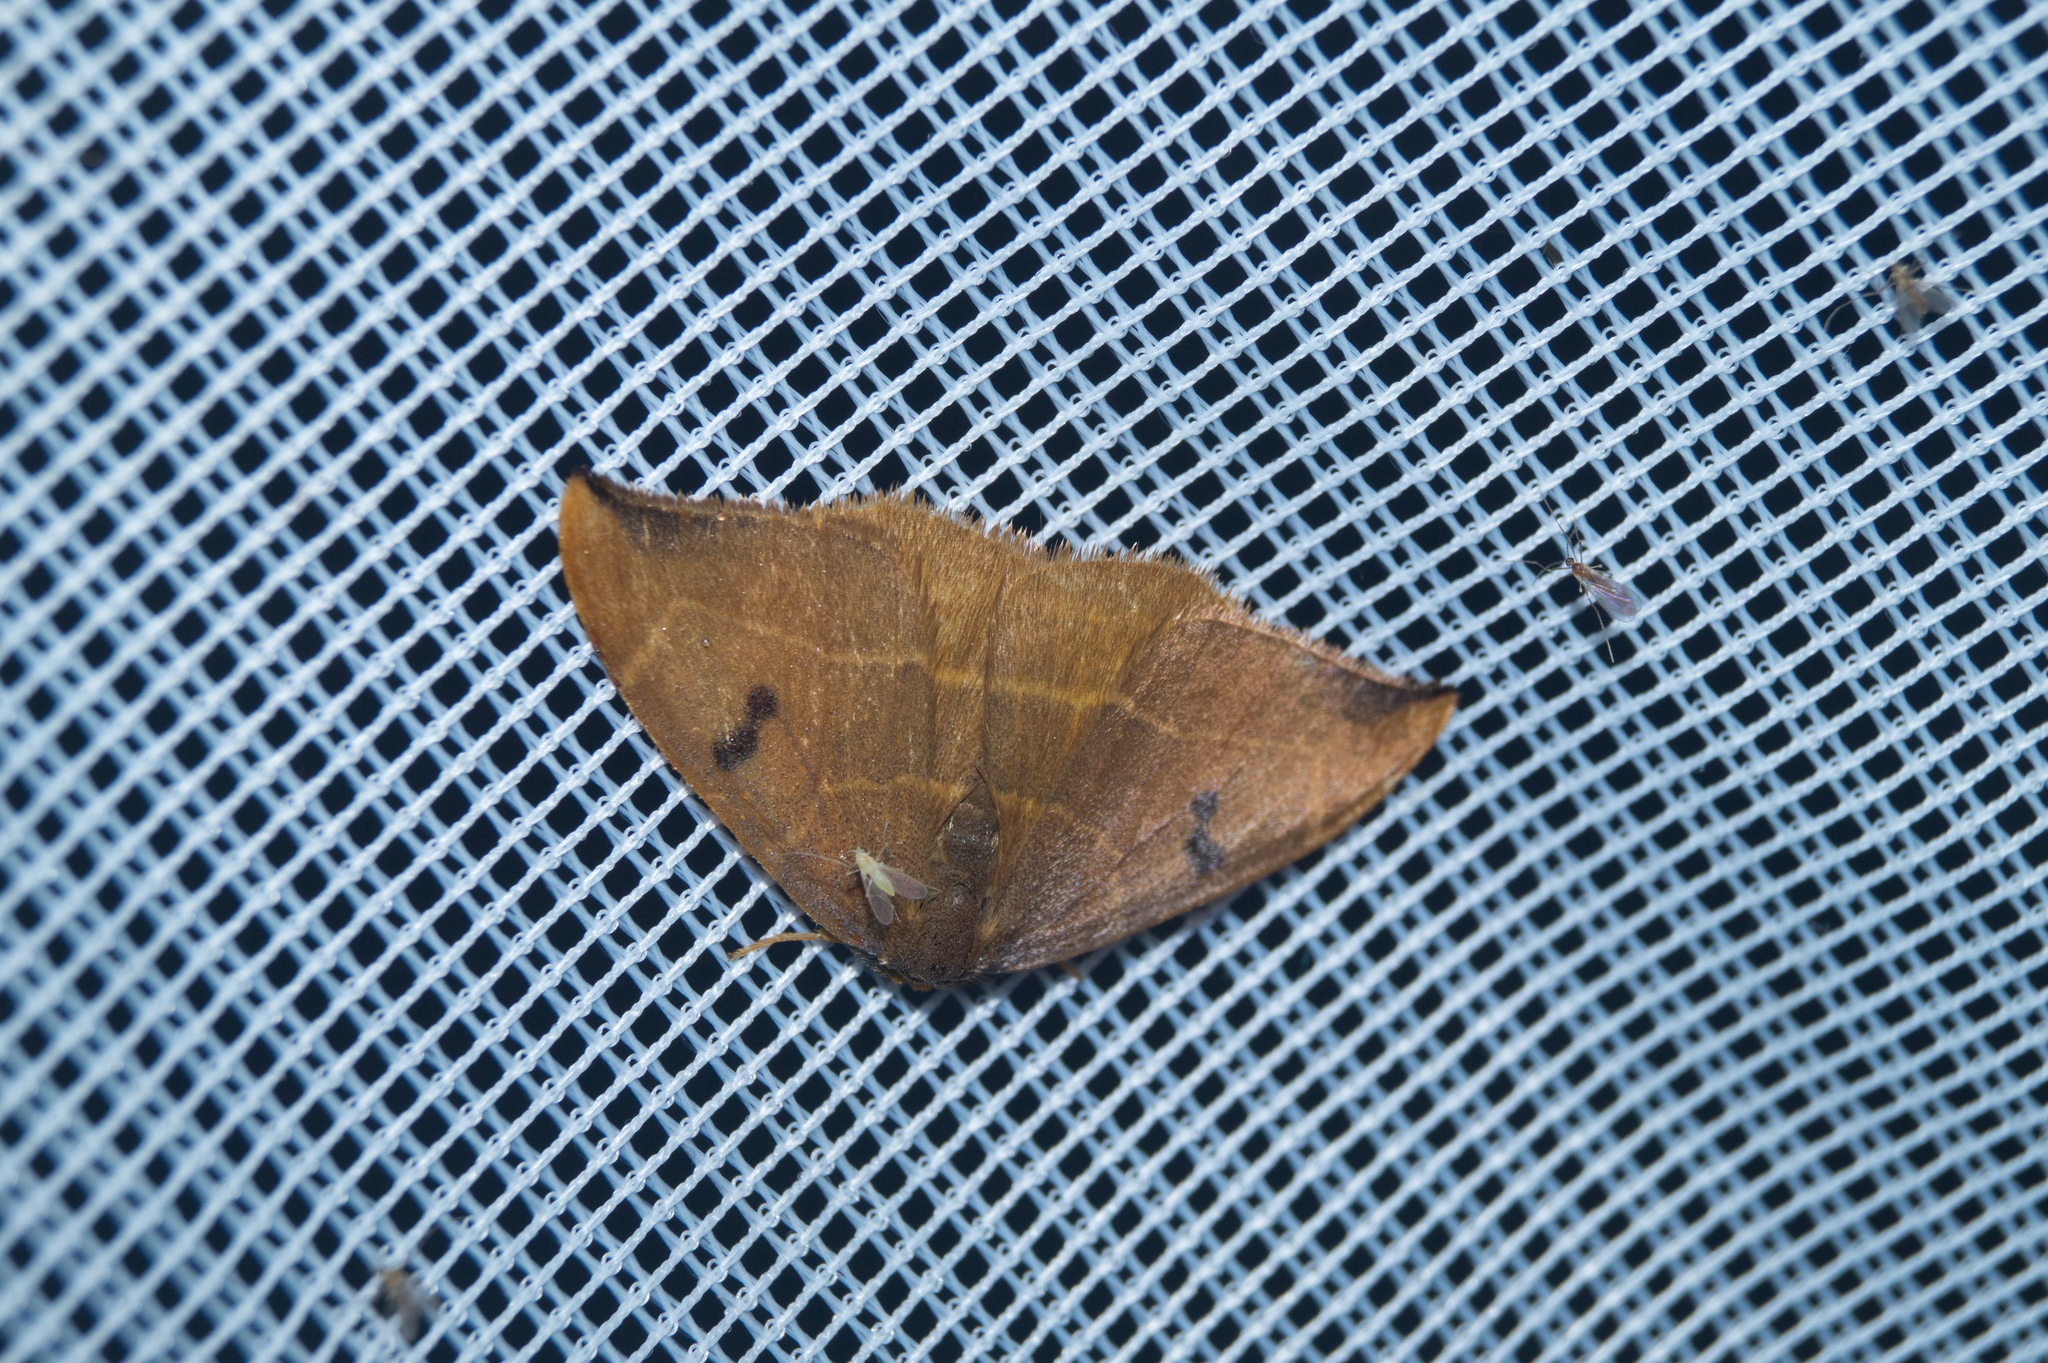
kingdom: Animalia
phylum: Arthropoda
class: Insecta
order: Lepidoptera
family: Drepanidae
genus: Watsonalla
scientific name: Watsonalla binaria
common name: Oak hook-tip
